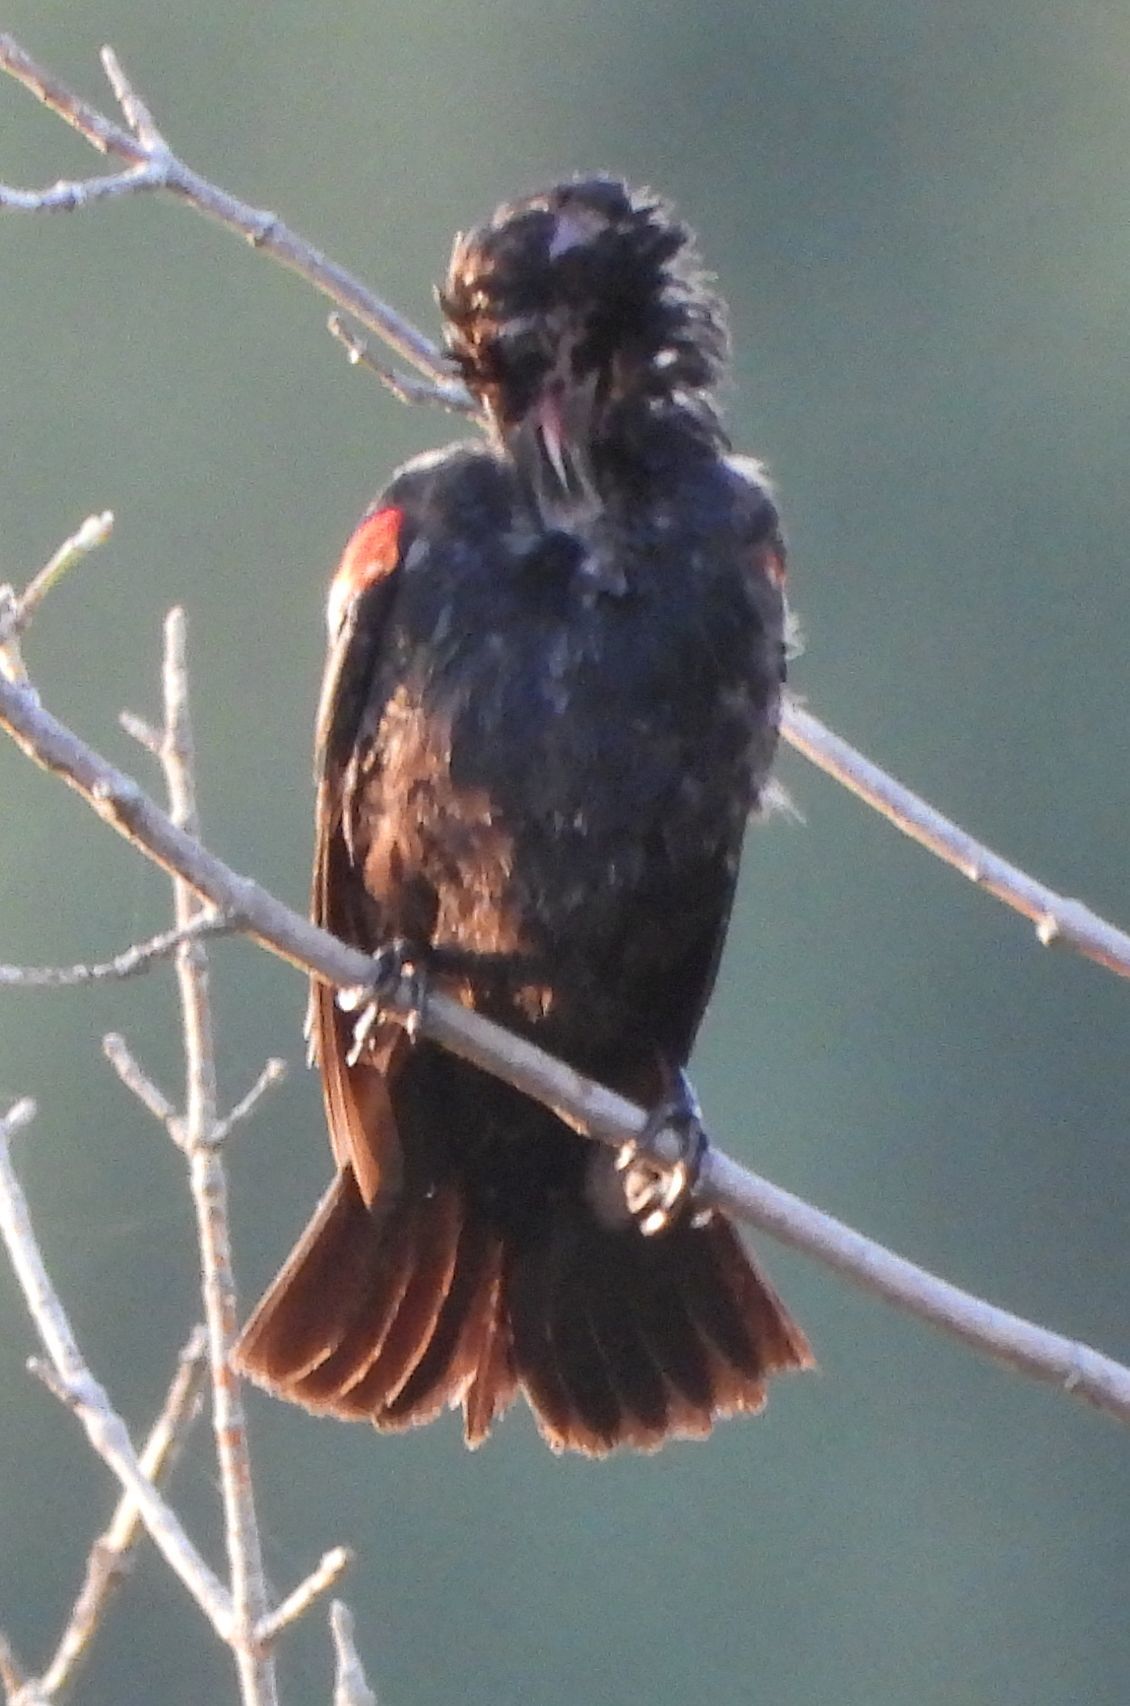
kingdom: Animalia
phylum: Chordata
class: Aves
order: Passeriformes
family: Icteridae
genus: Agelaius
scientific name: Agelaius phoeniceus
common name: Red-winged blackbird
